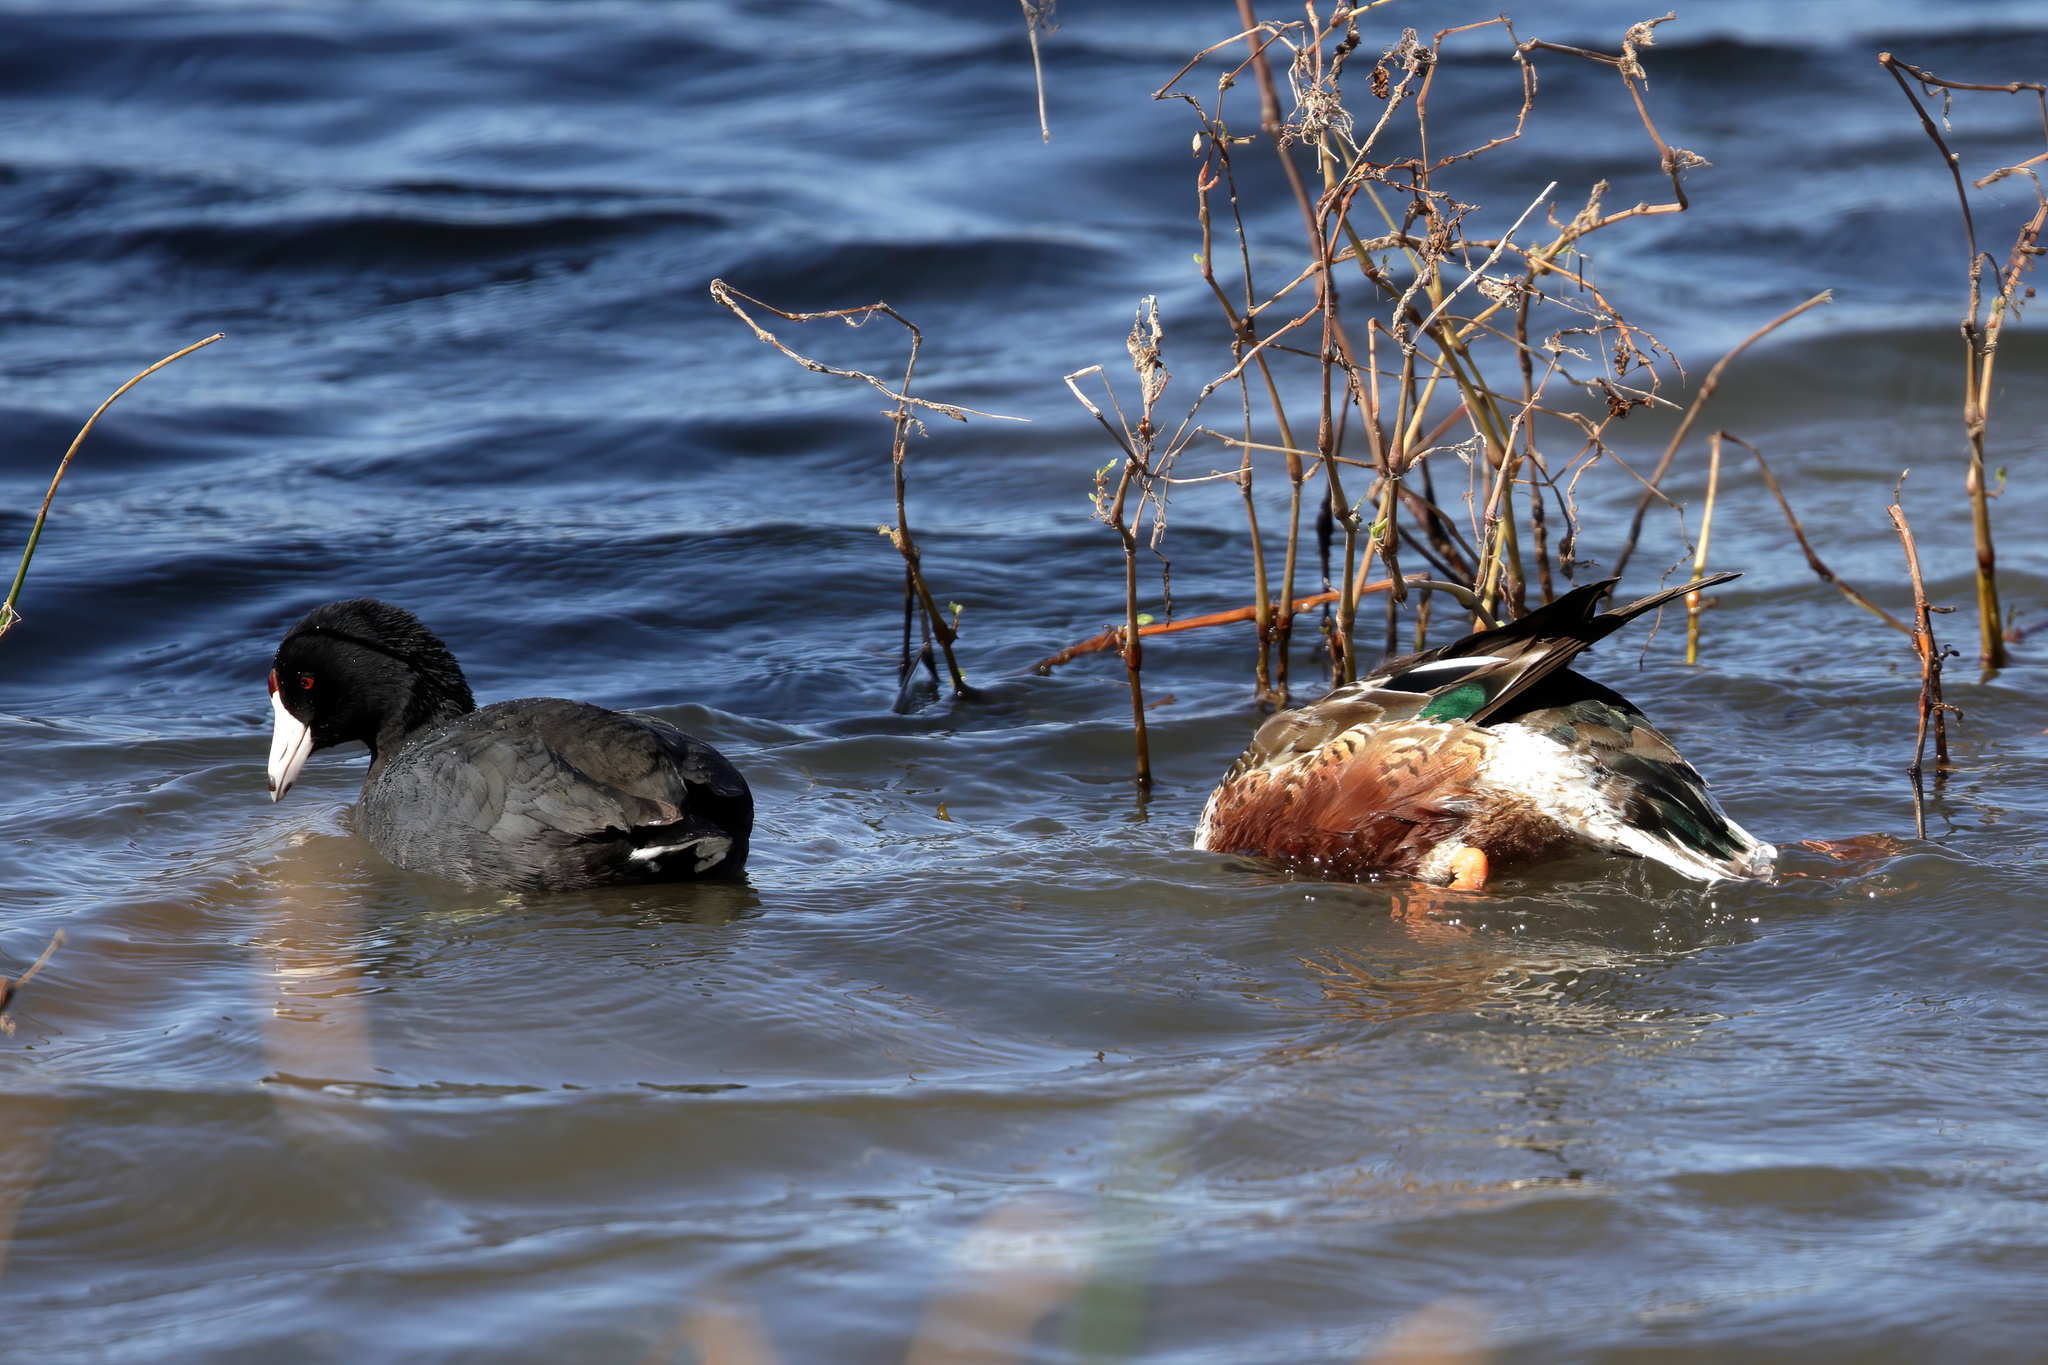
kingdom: Animalia
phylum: Chordata
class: Aves
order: Anseriformes
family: Anatidae
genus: Spatula
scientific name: Spatula clypeata
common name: Northern shoveler
